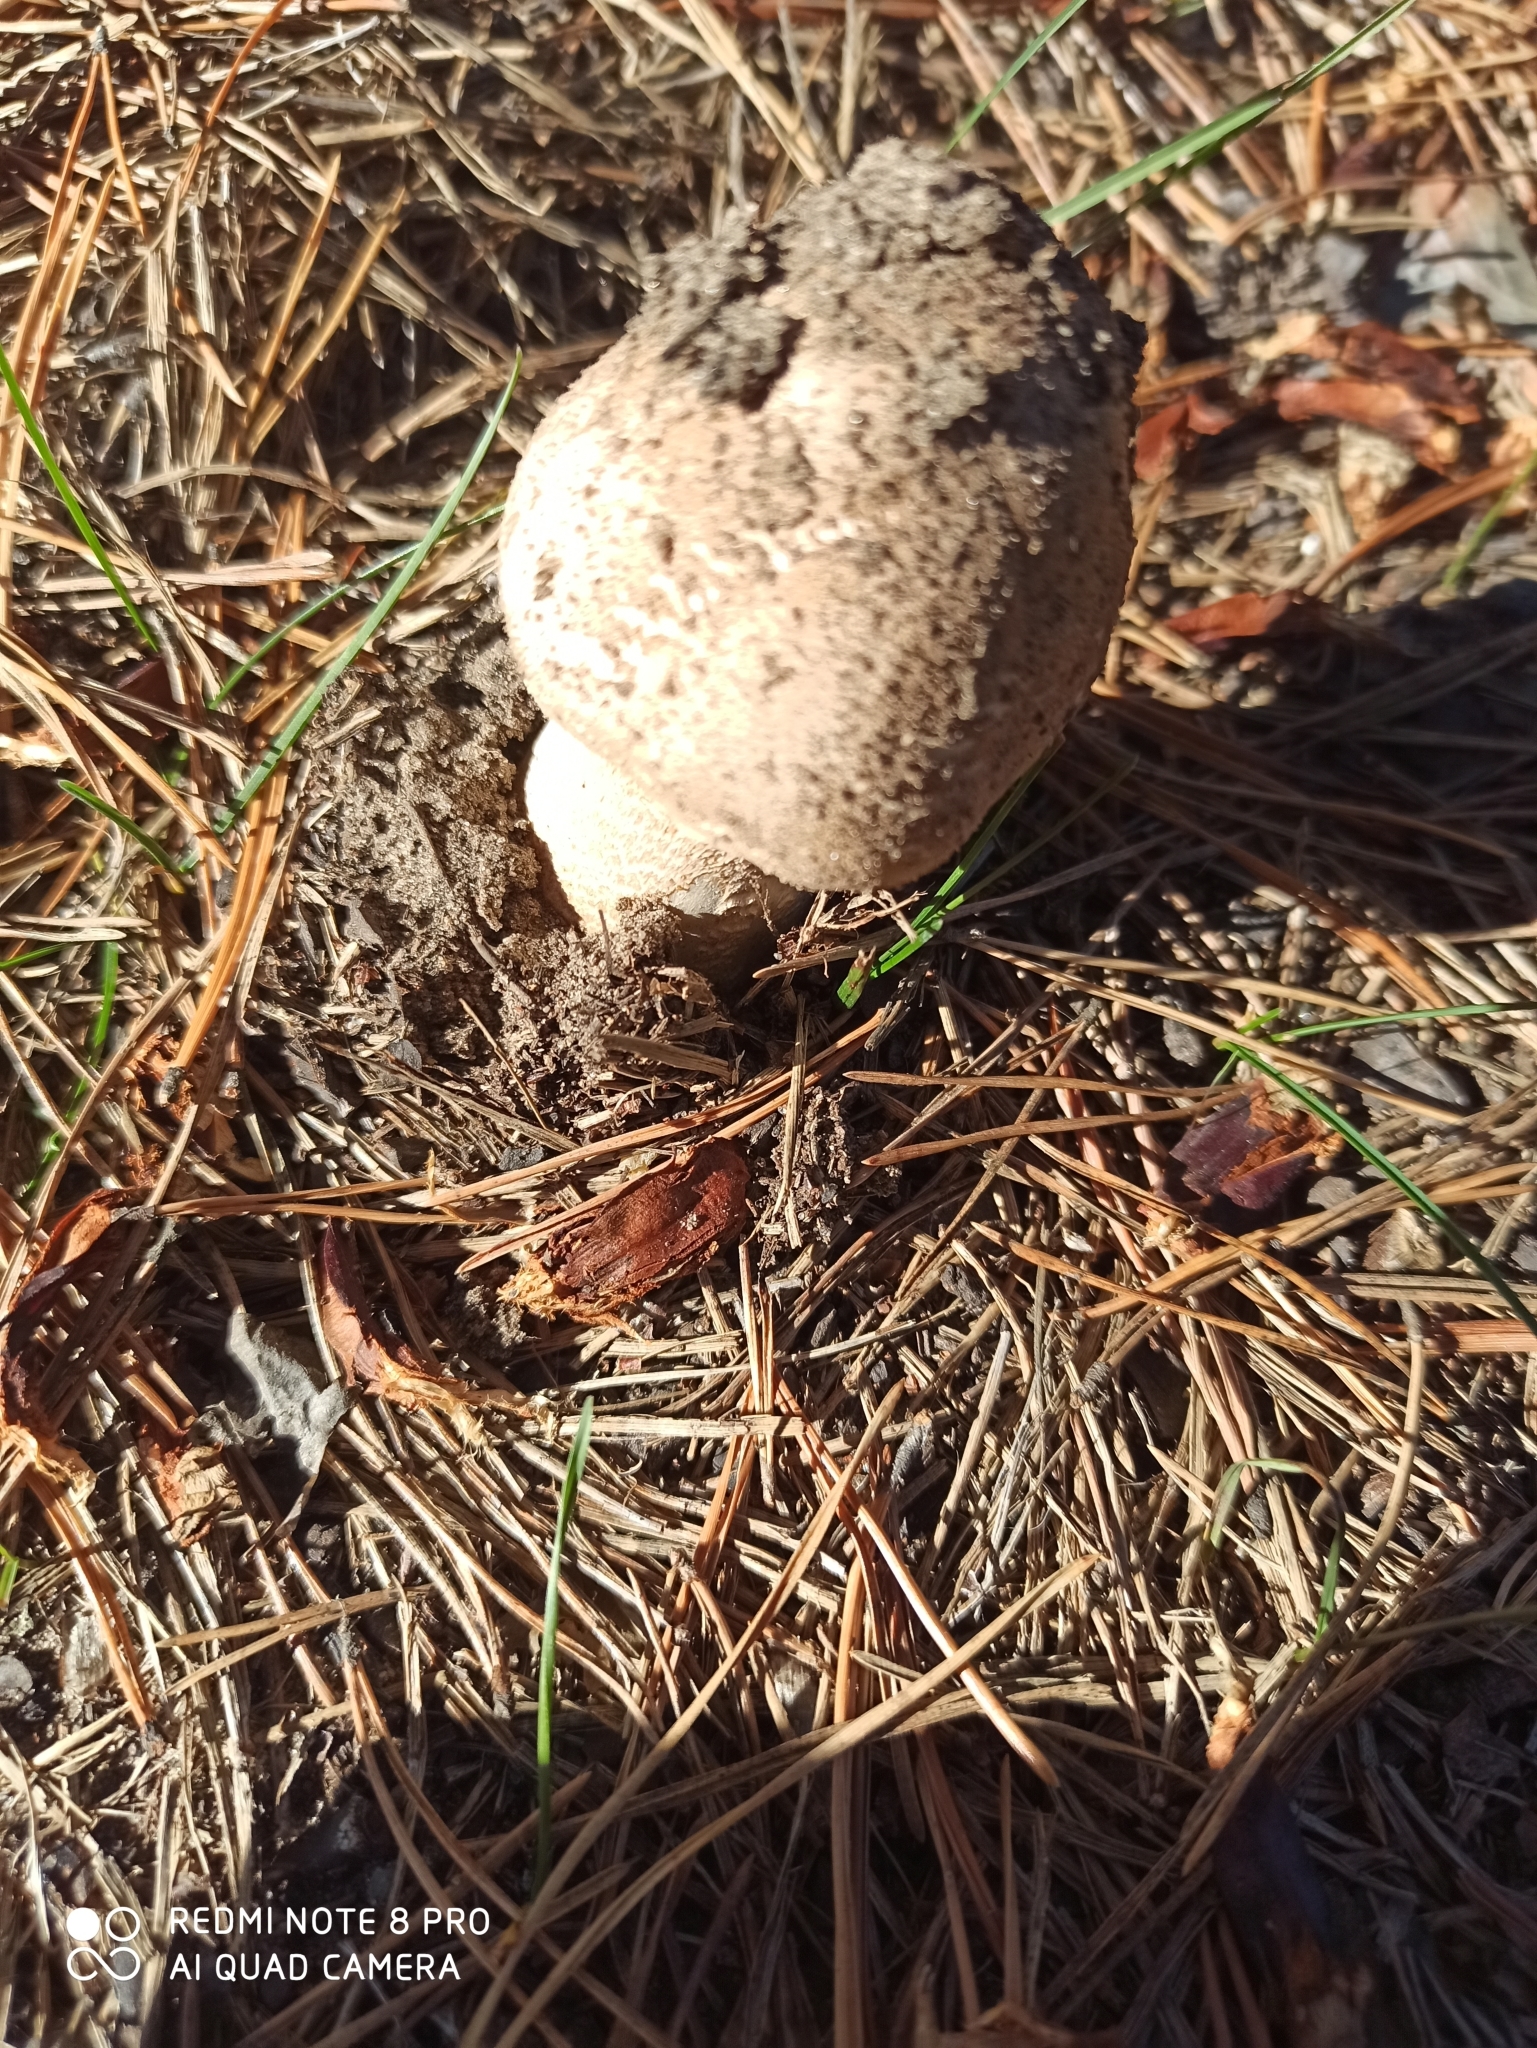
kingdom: Fungi
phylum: Basidiomycota
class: Agaricomycetes
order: Agaricales
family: Agaricaceae
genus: Macrolepiota
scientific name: Macrolepiota procera
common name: Parasol
